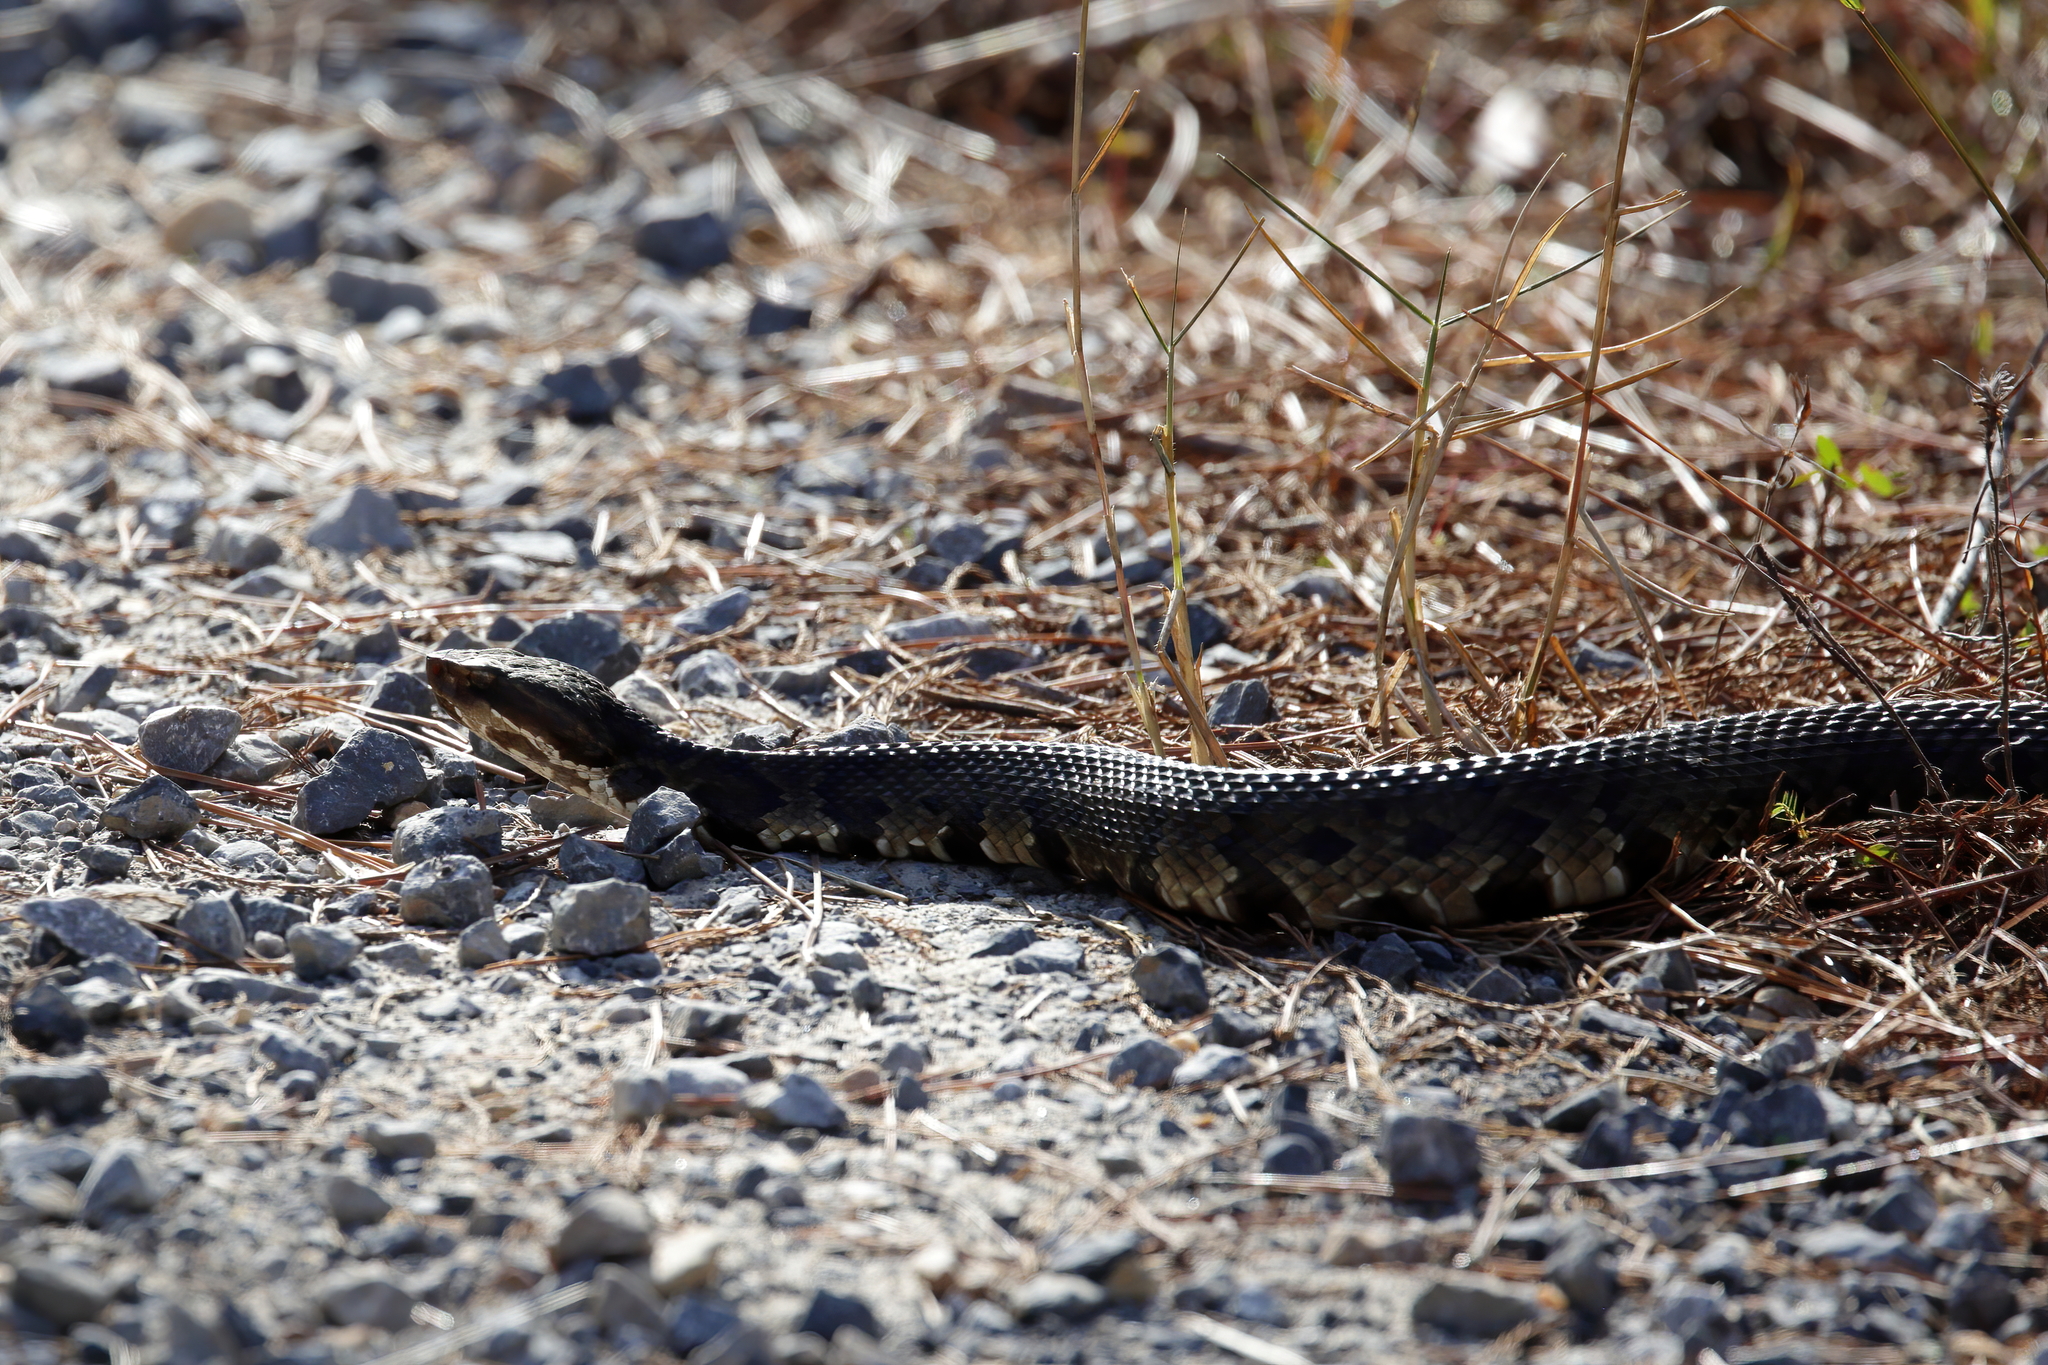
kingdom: Animalia
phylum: Chordata
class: Squamata
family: Viperidae
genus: Agkistrodon
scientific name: Agkistrodon piscivorus
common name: Cottonmouth
